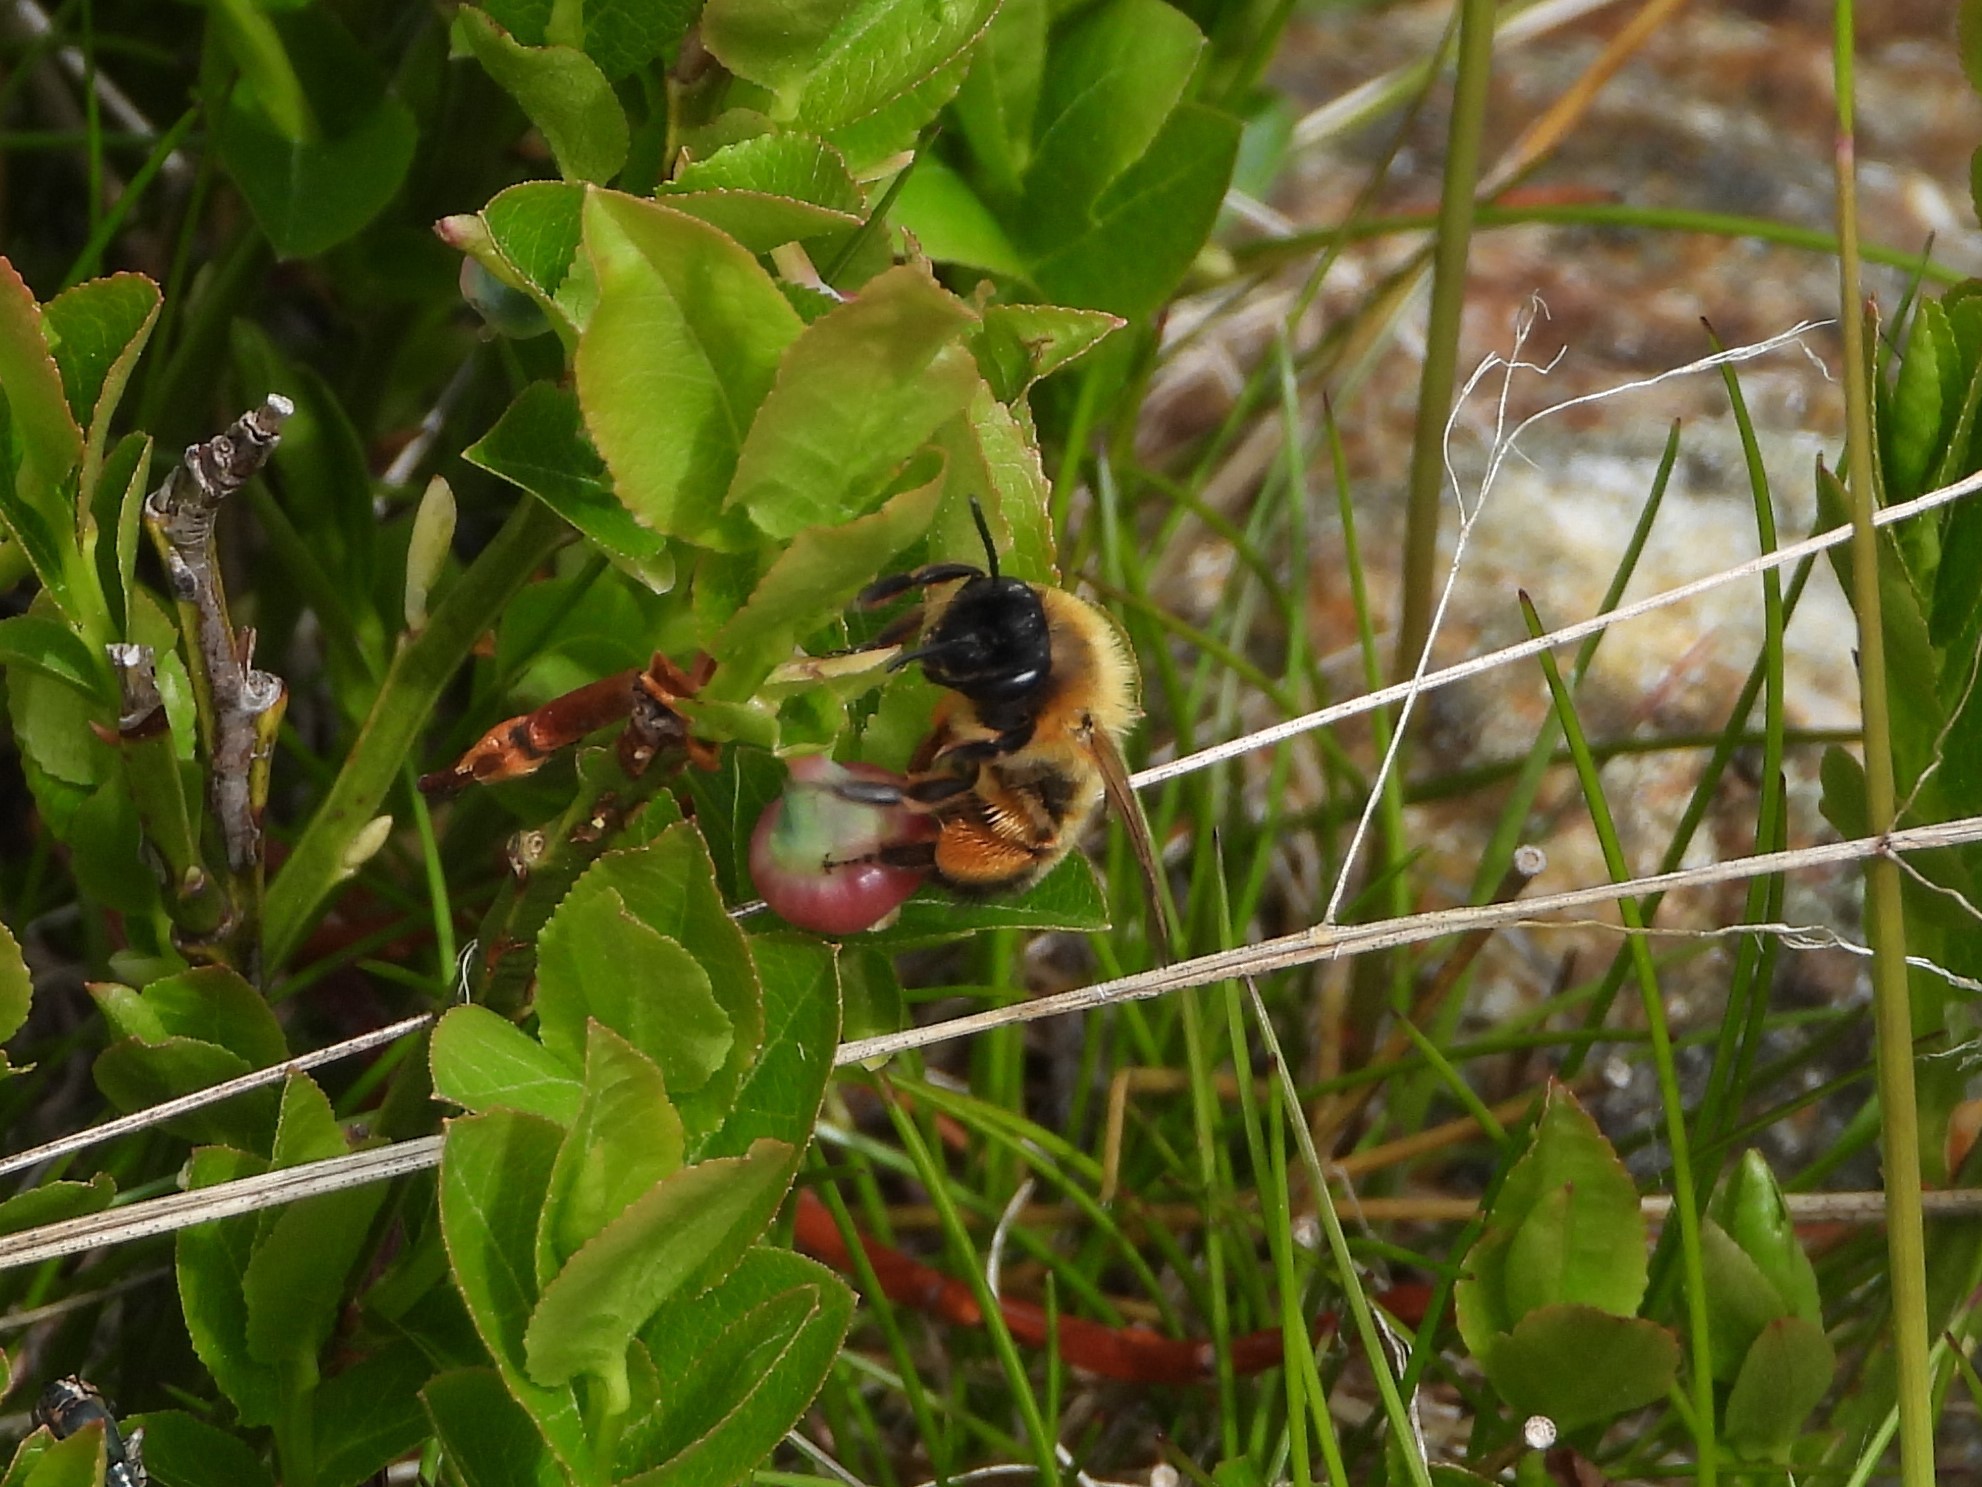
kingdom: Animalia
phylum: Arthropoda
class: Insecta
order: Hymenoptera
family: Andrenidae
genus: Andrena
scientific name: Andrena nigroaenea
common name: Buffish mining bee
